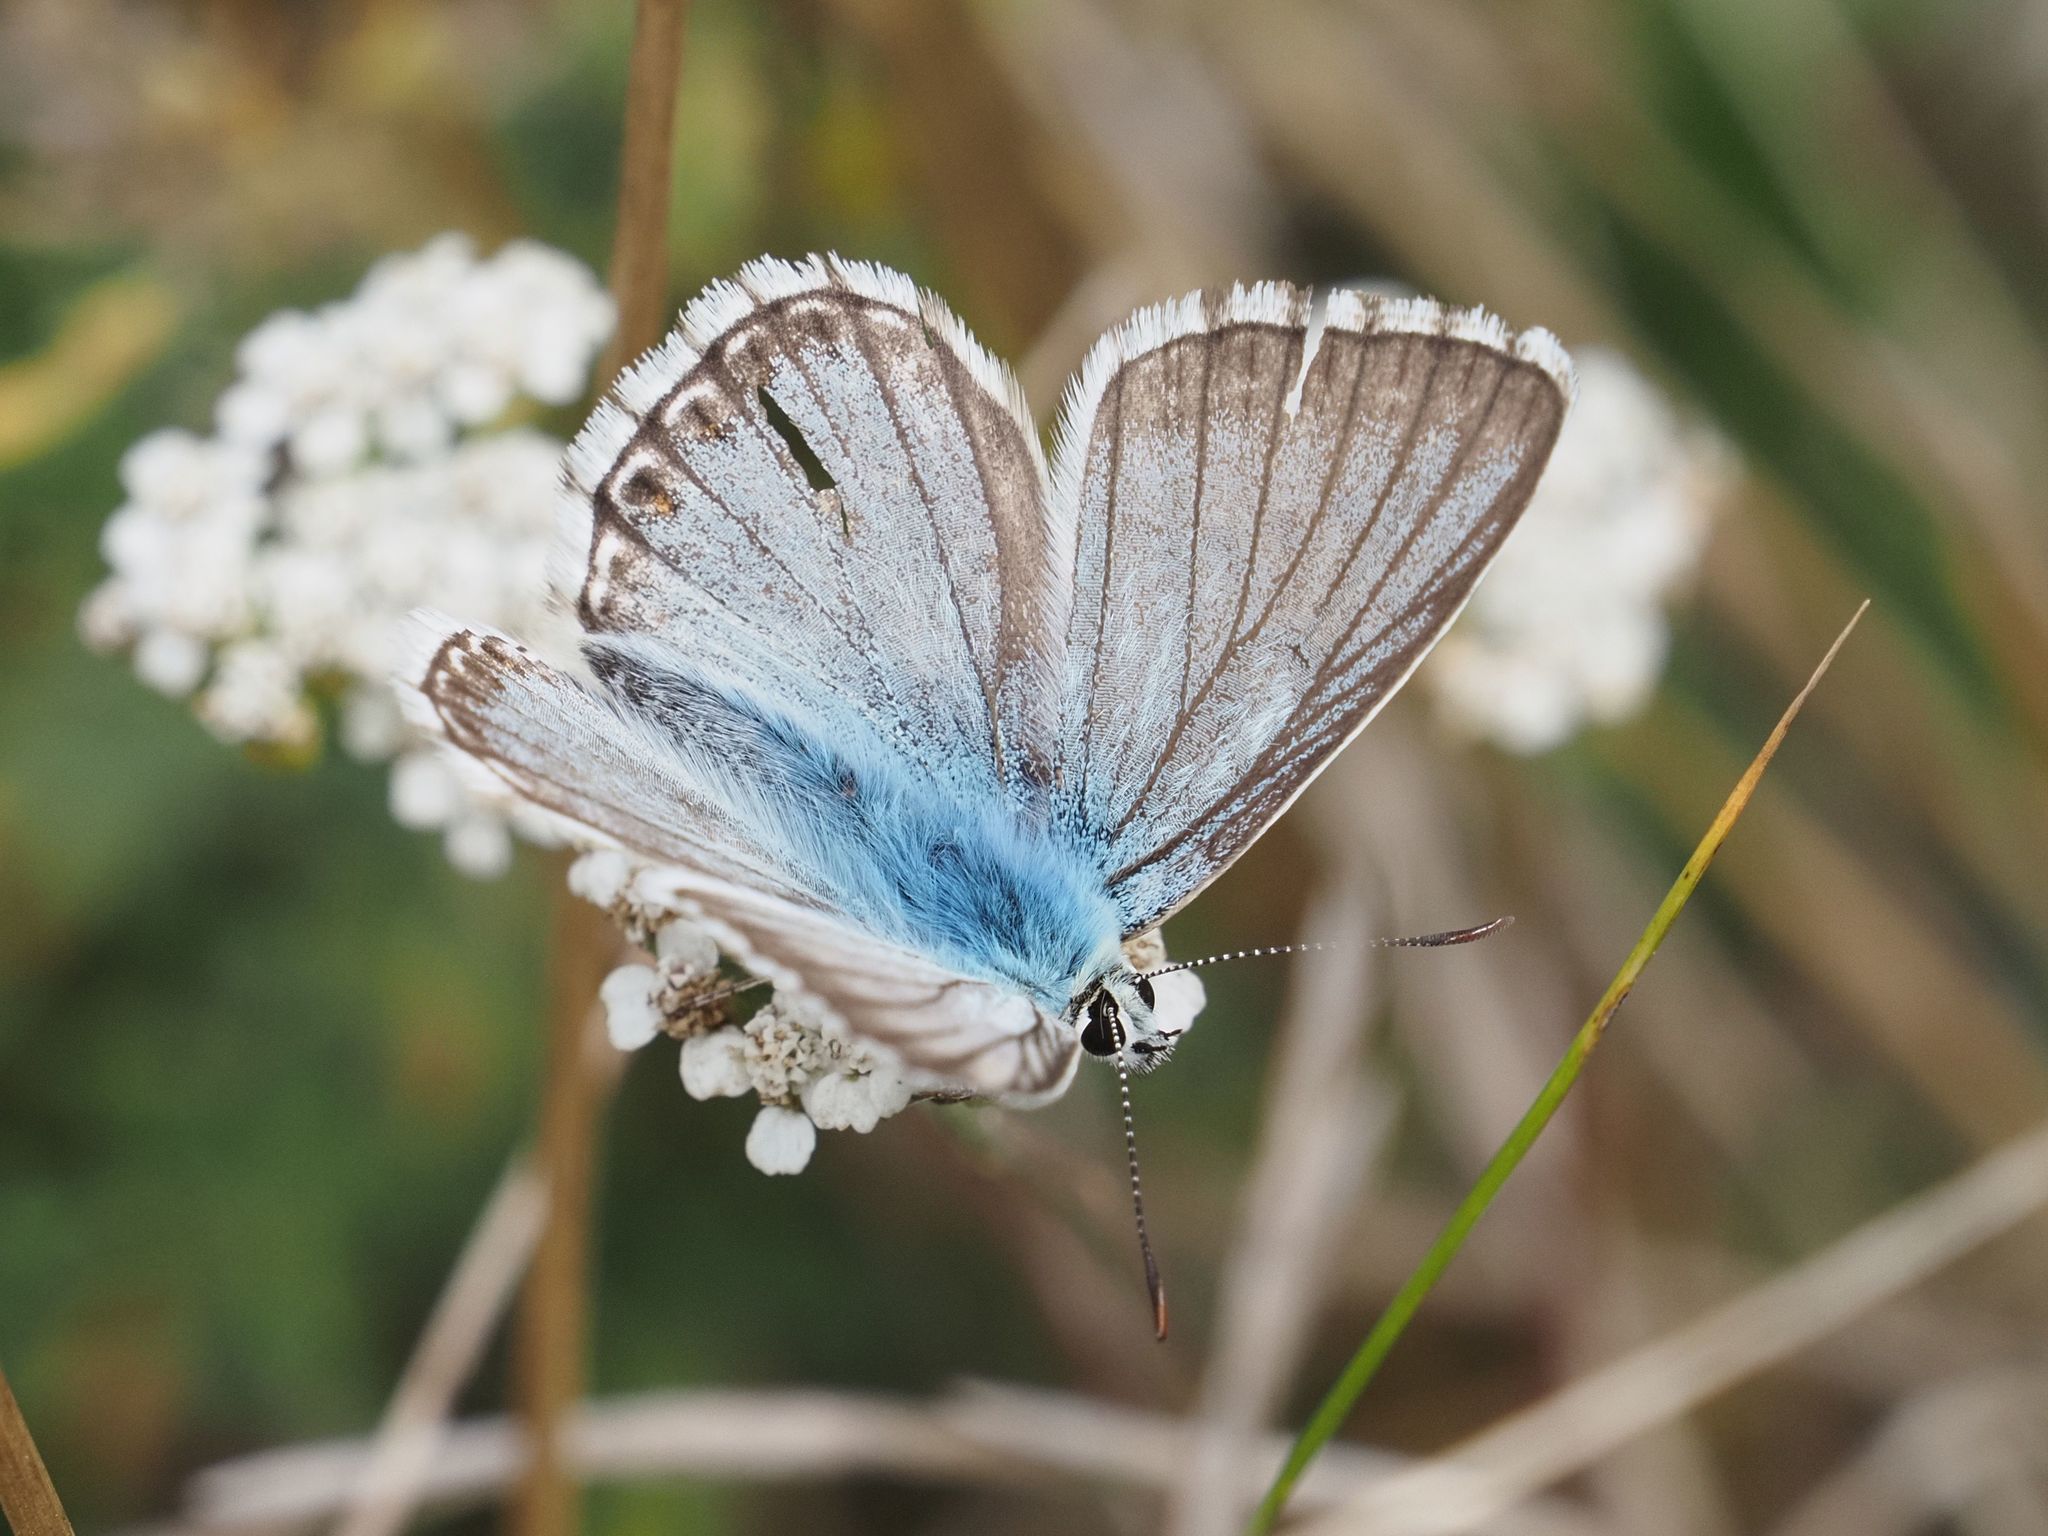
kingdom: Animalia
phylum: Arthropoda
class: Insecta
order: Lepidoptera
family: Lycaenidae
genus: Lysandra
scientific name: Lysandra coridon
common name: Chalkhill blue
